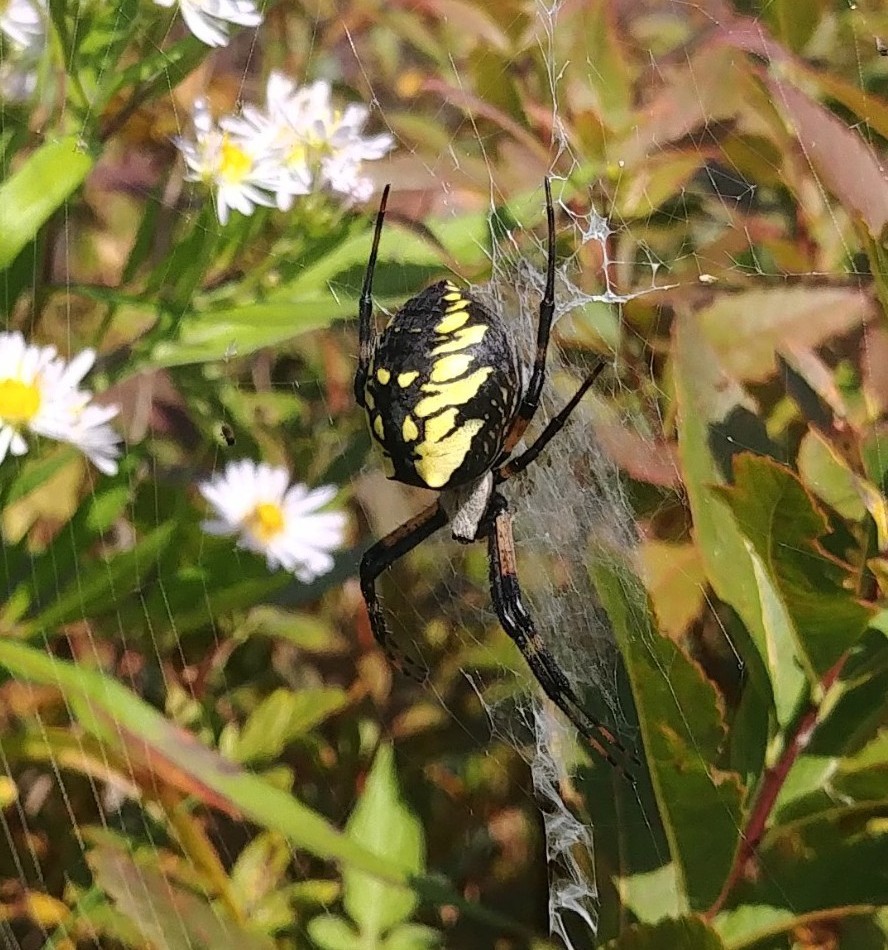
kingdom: Animalia
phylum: Arthropoda
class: Arachnida
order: Araneae
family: Araneidae
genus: Argiope
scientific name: Argiope aurantia
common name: Orb weavers
